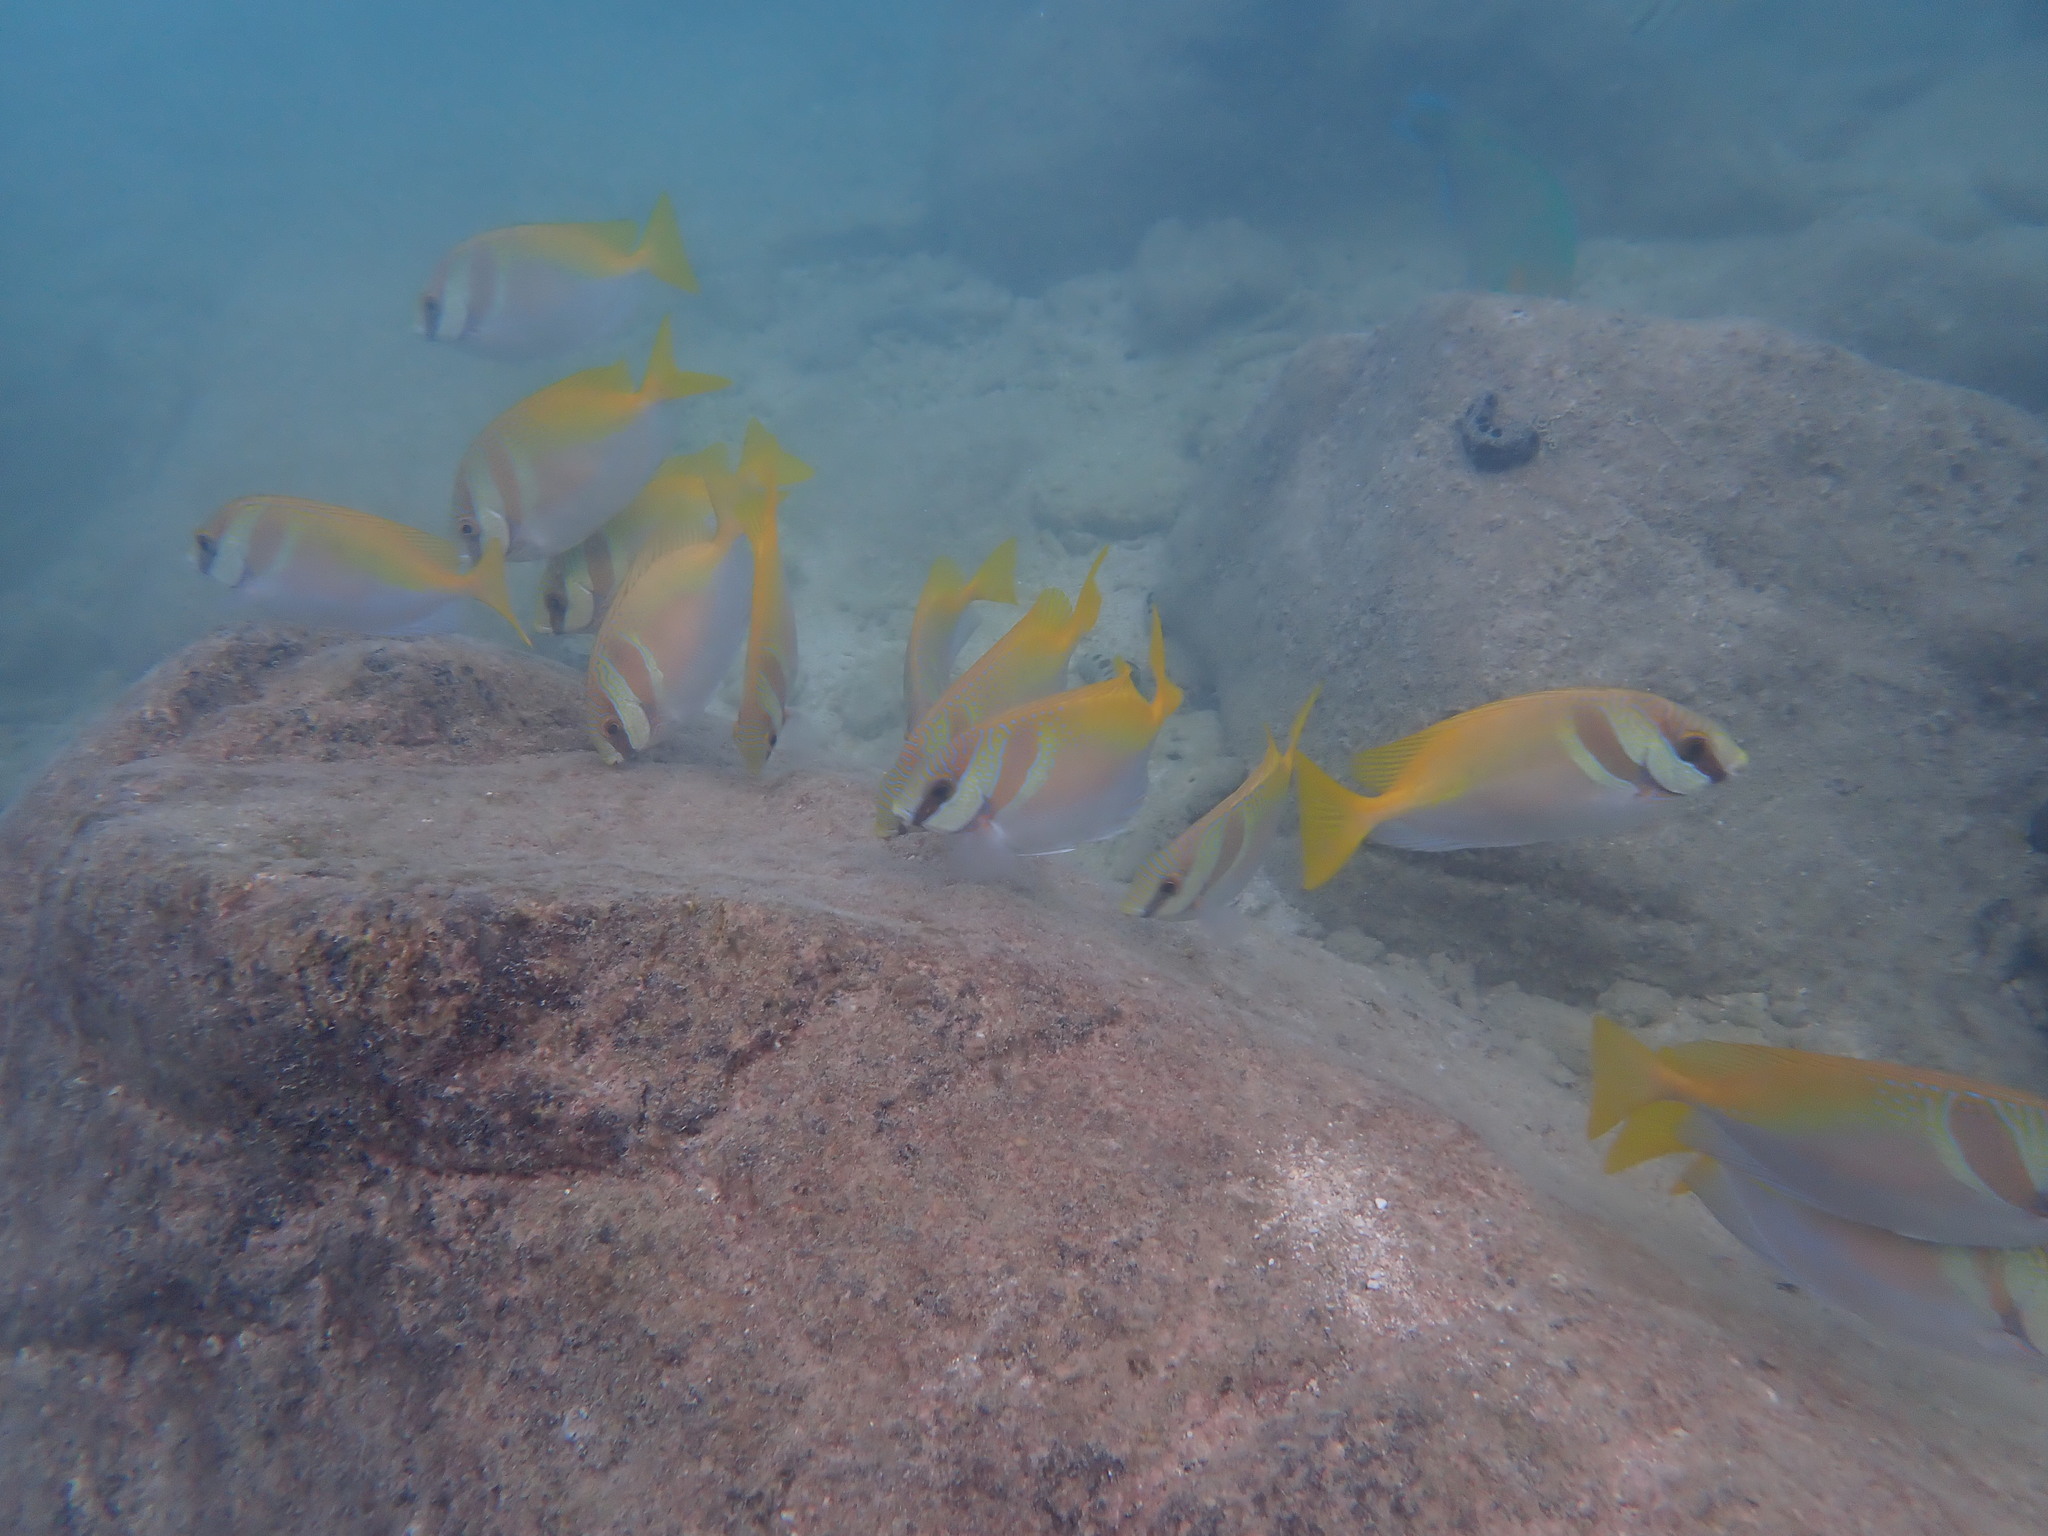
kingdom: Animalia
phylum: Chordata
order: Perciformes
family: Siganidae
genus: Siganus
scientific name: Siganus virgatus
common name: Barhead spinefoot
